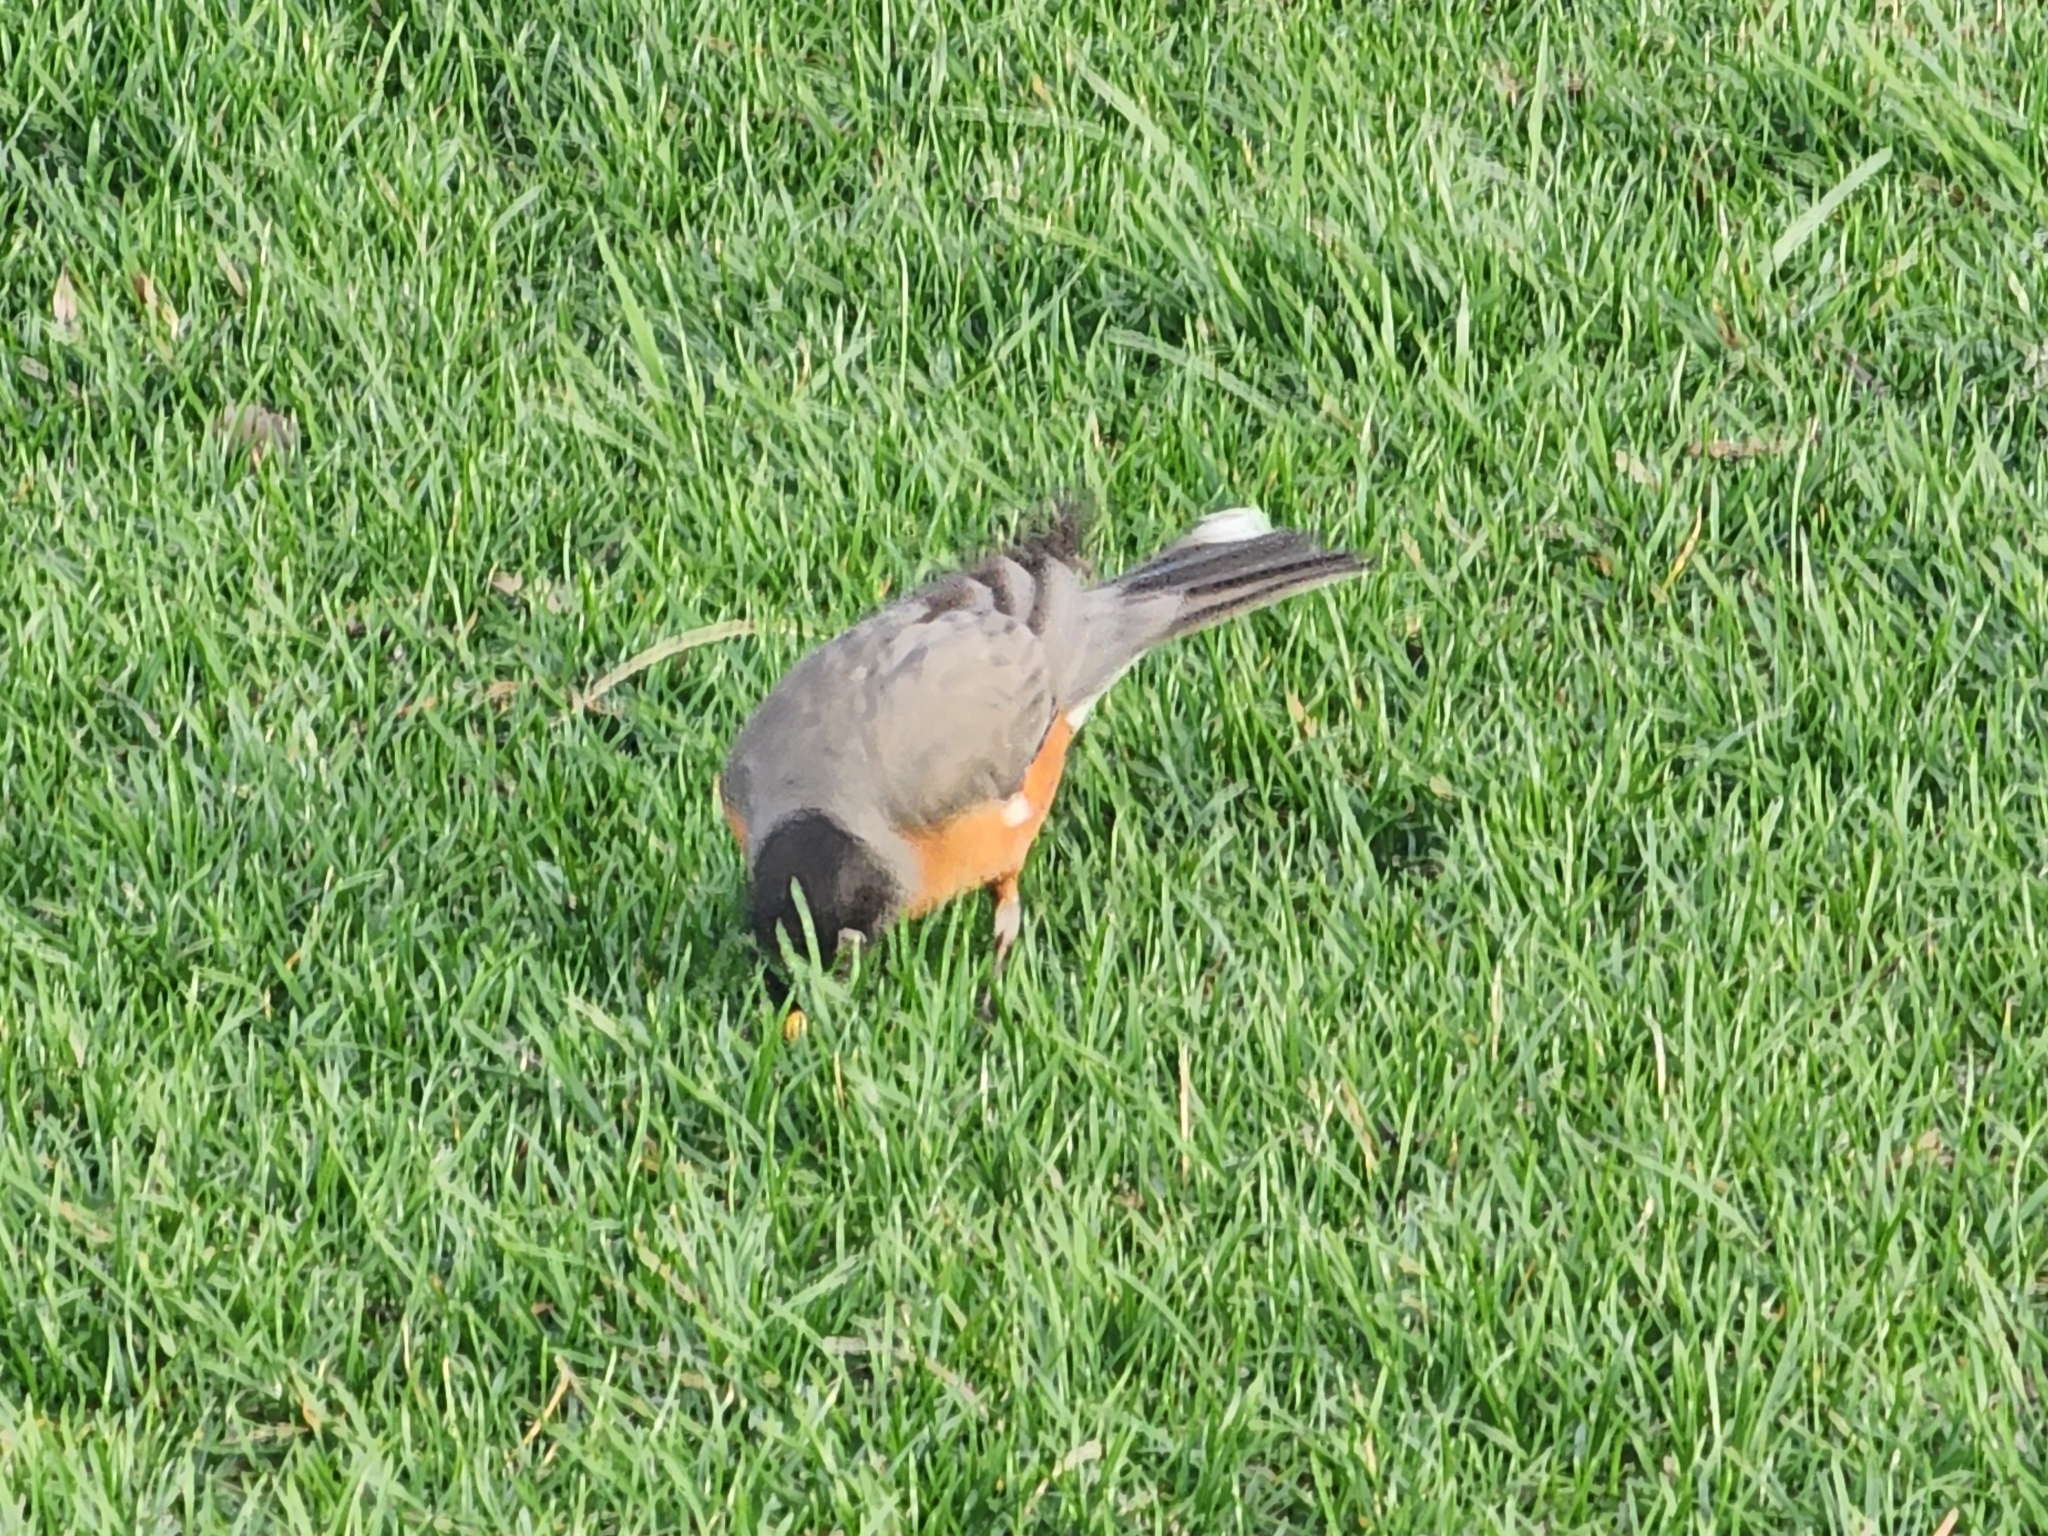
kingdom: Animalia
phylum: Chordata
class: Aves
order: Passeriformes
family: Turdidae
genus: Turdus
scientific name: Turdus migratorius
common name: American robin
